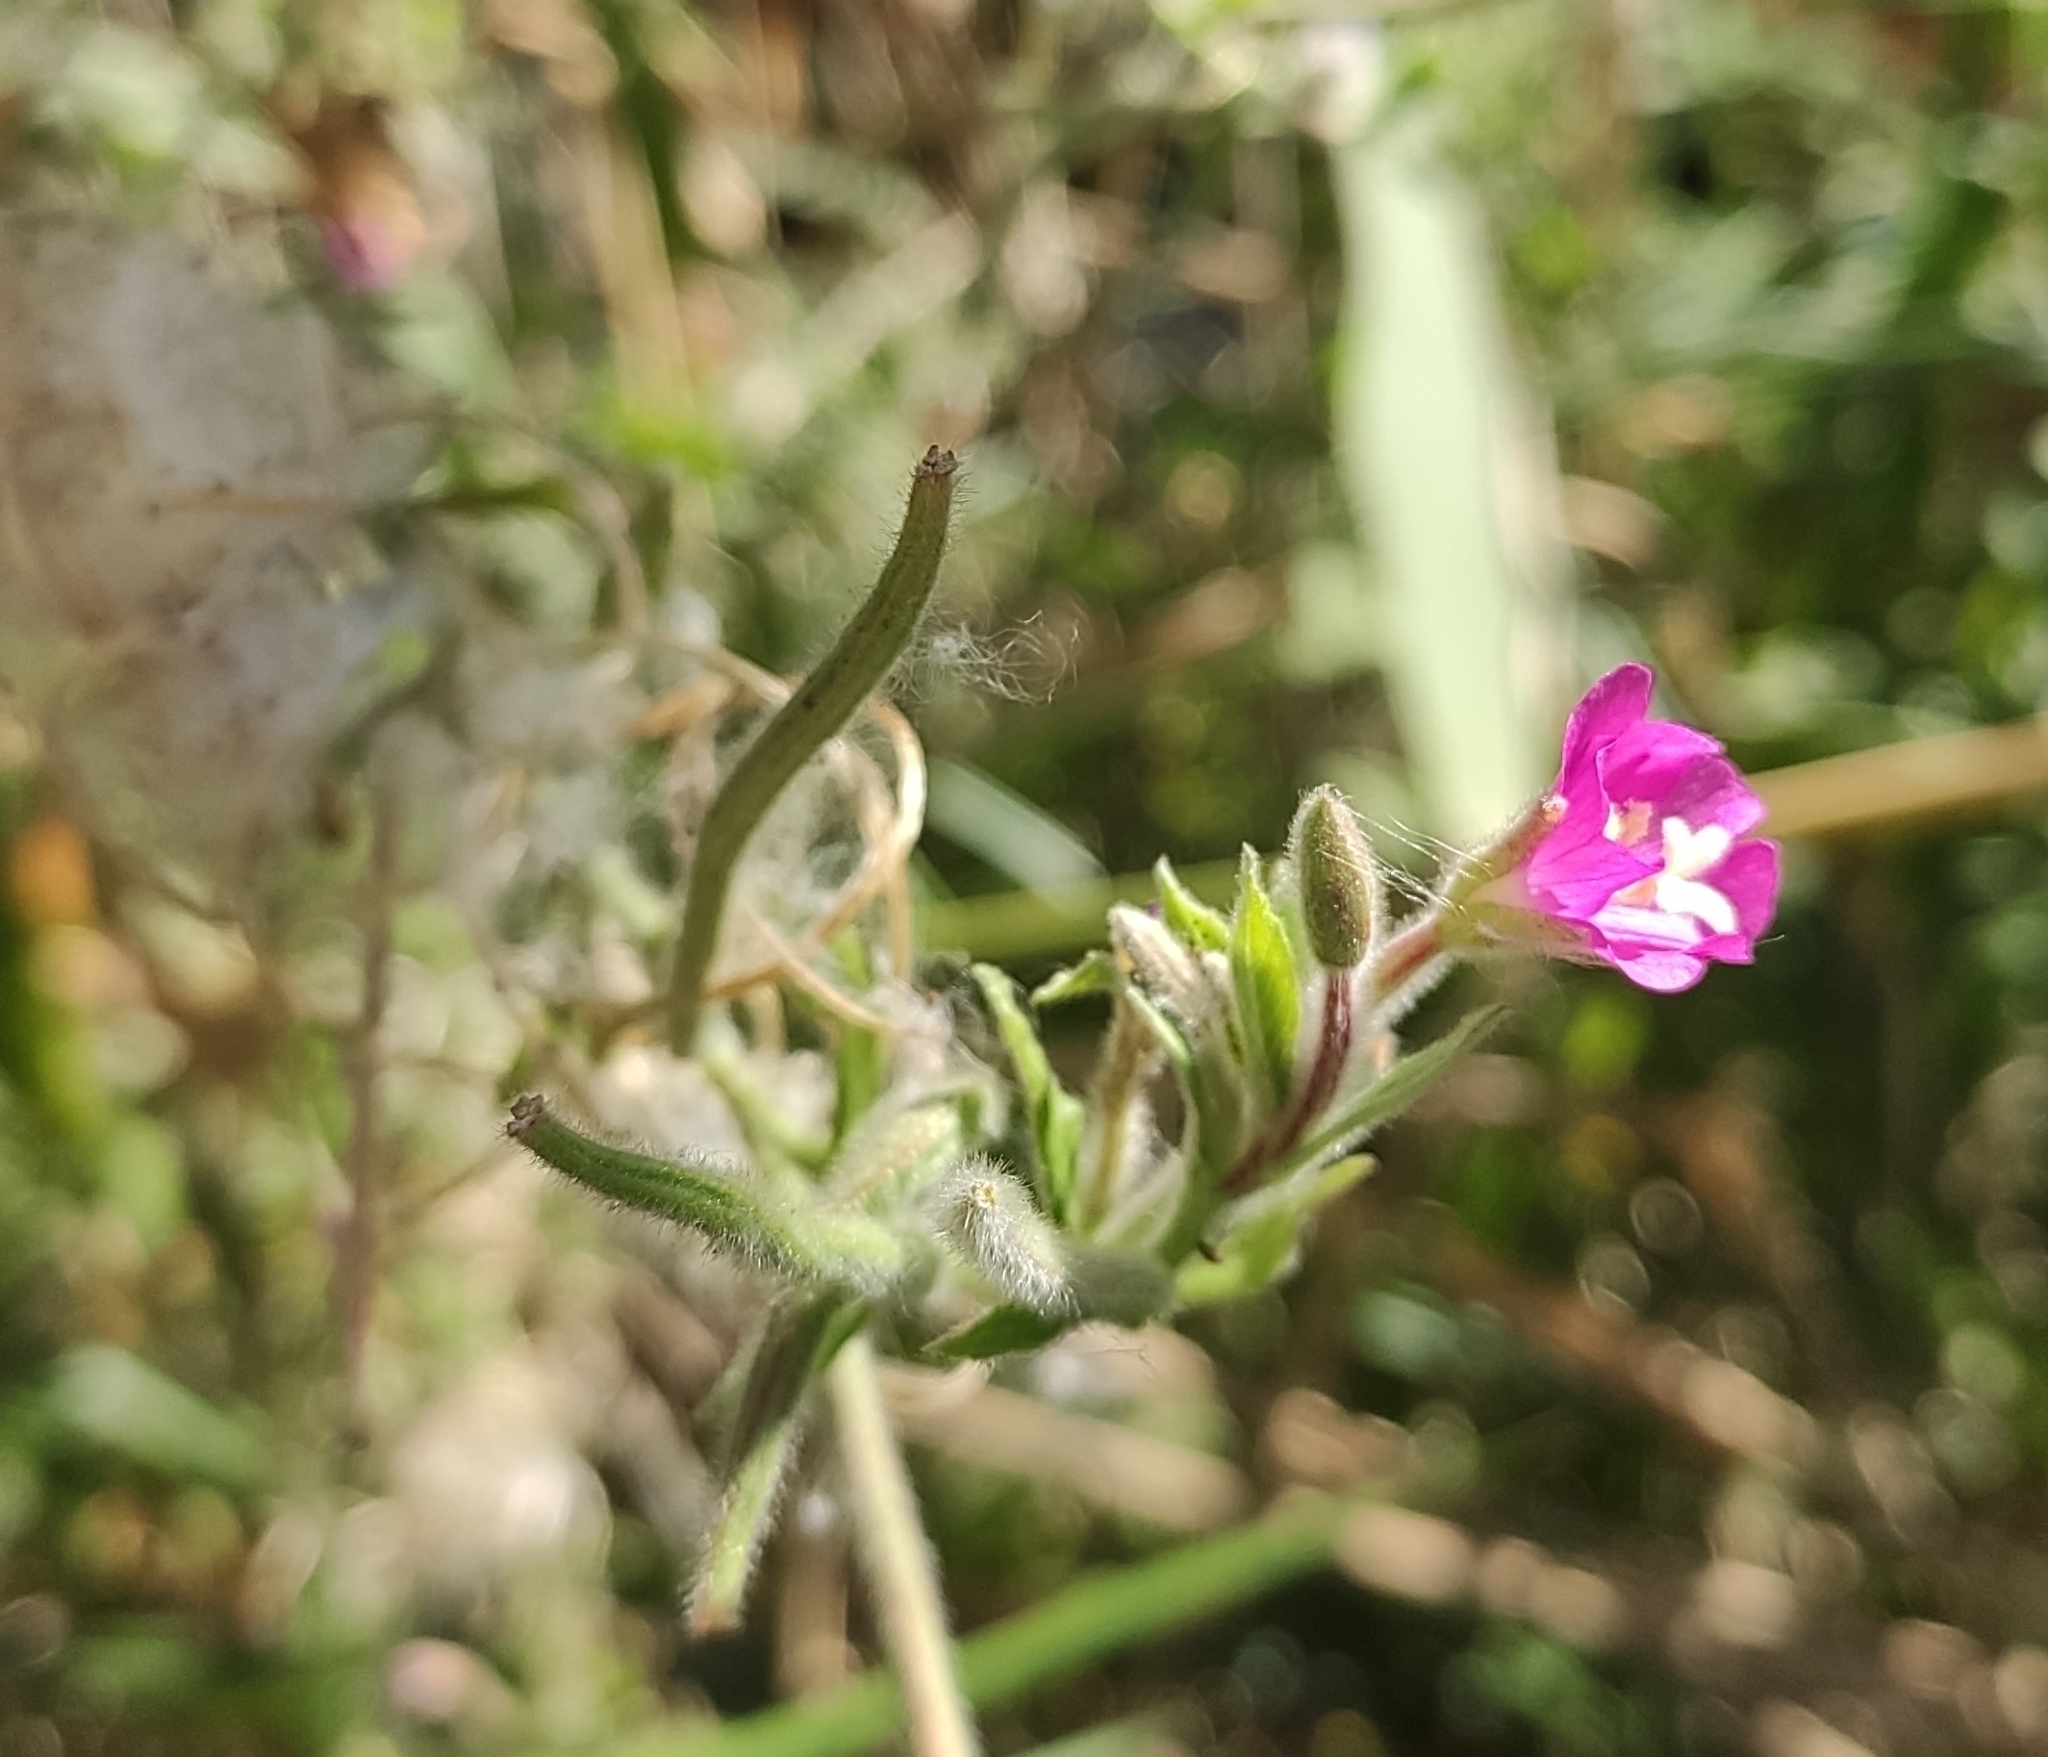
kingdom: Plantae
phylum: Tracheophyta
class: Magnoliopsida
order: Myrtales
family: Onagraceae
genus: Epilobium
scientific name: Epilobium hirsutum
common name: Great willowherb
